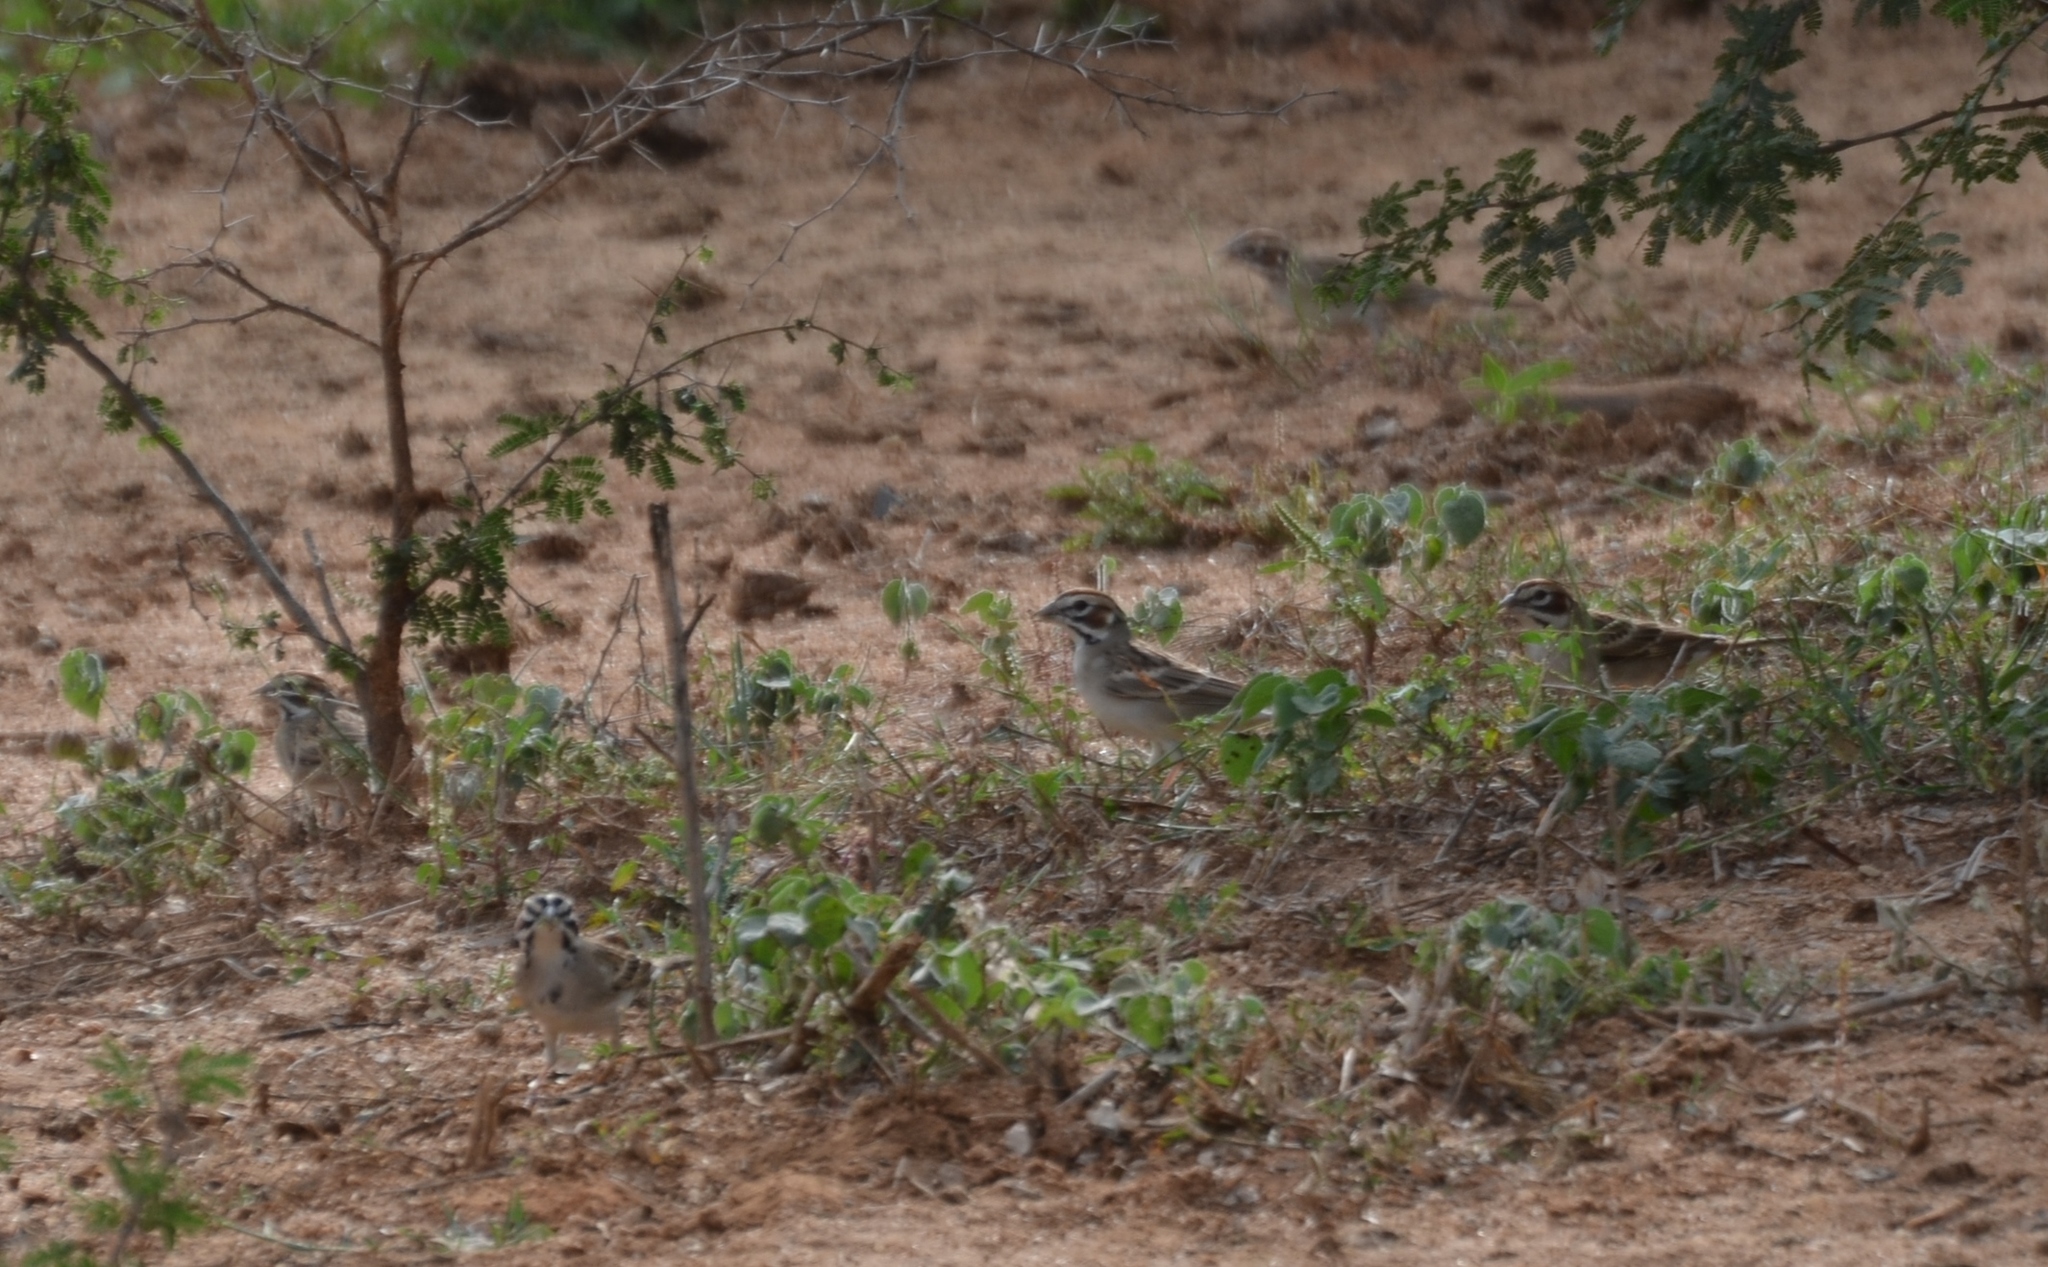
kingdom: Animalia
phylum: Chordata
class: Aves
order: Passeriformes
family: Passerellidae
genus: Chondestes
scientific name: Chondestes grammacus
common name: Lark sparrow
